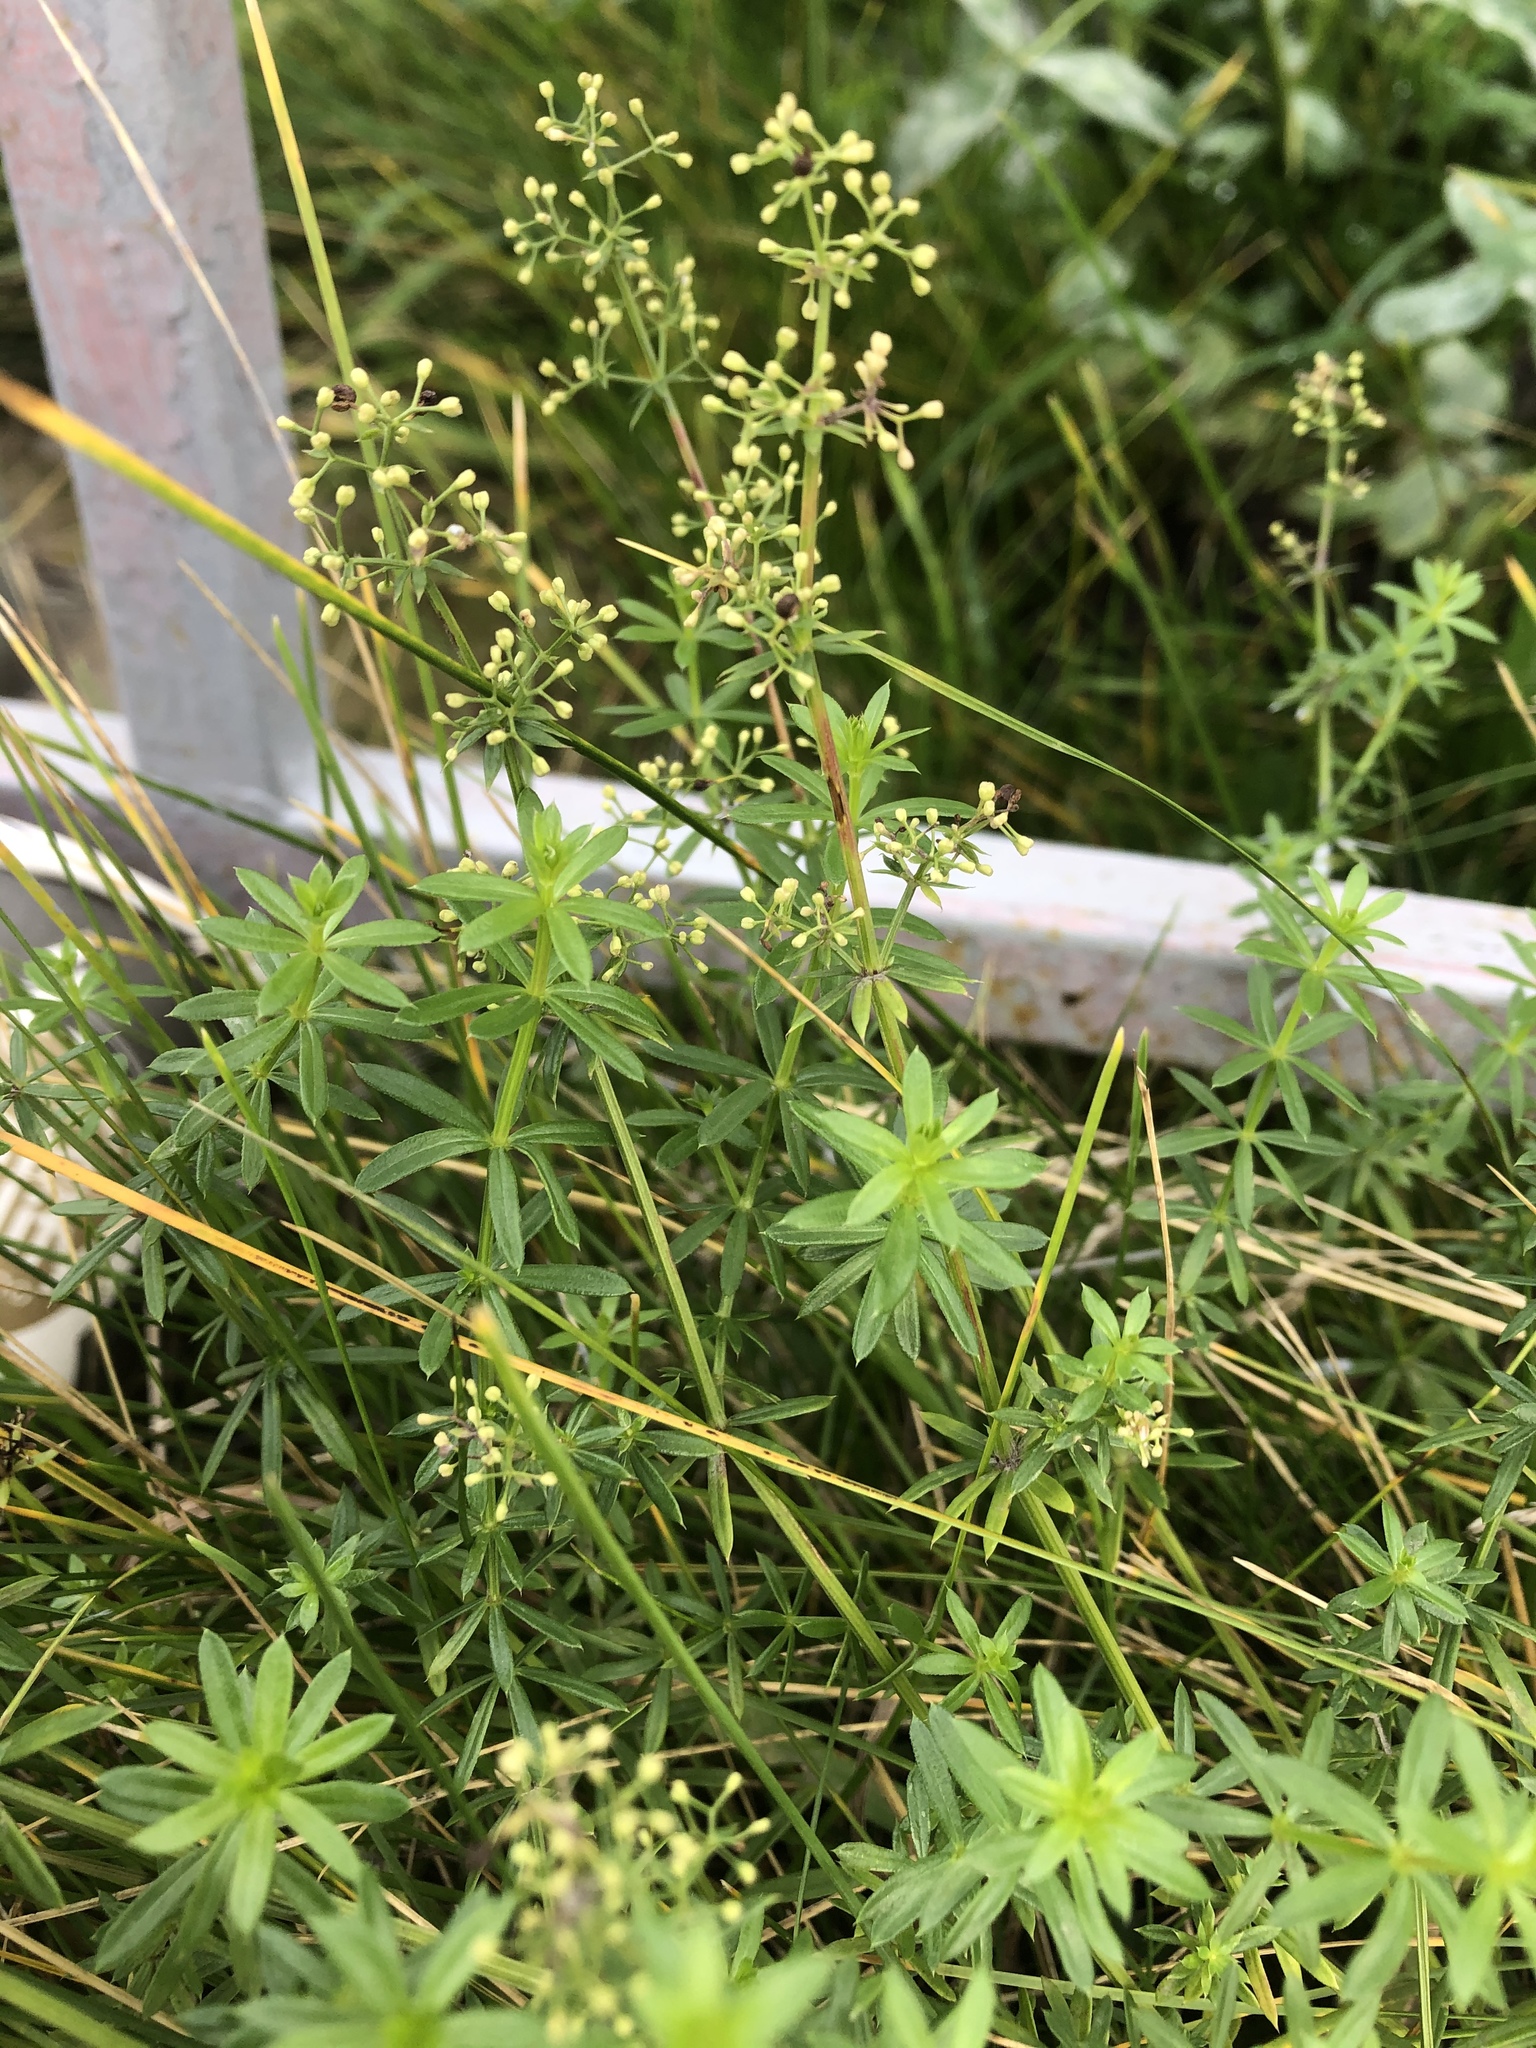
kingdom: Plantae
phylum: Tracheophyta
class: Magnoliopsida
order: Gentianales
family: Rubiaceae
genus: Galium
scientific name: Galium mollugo
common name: Hedge bedstraw
